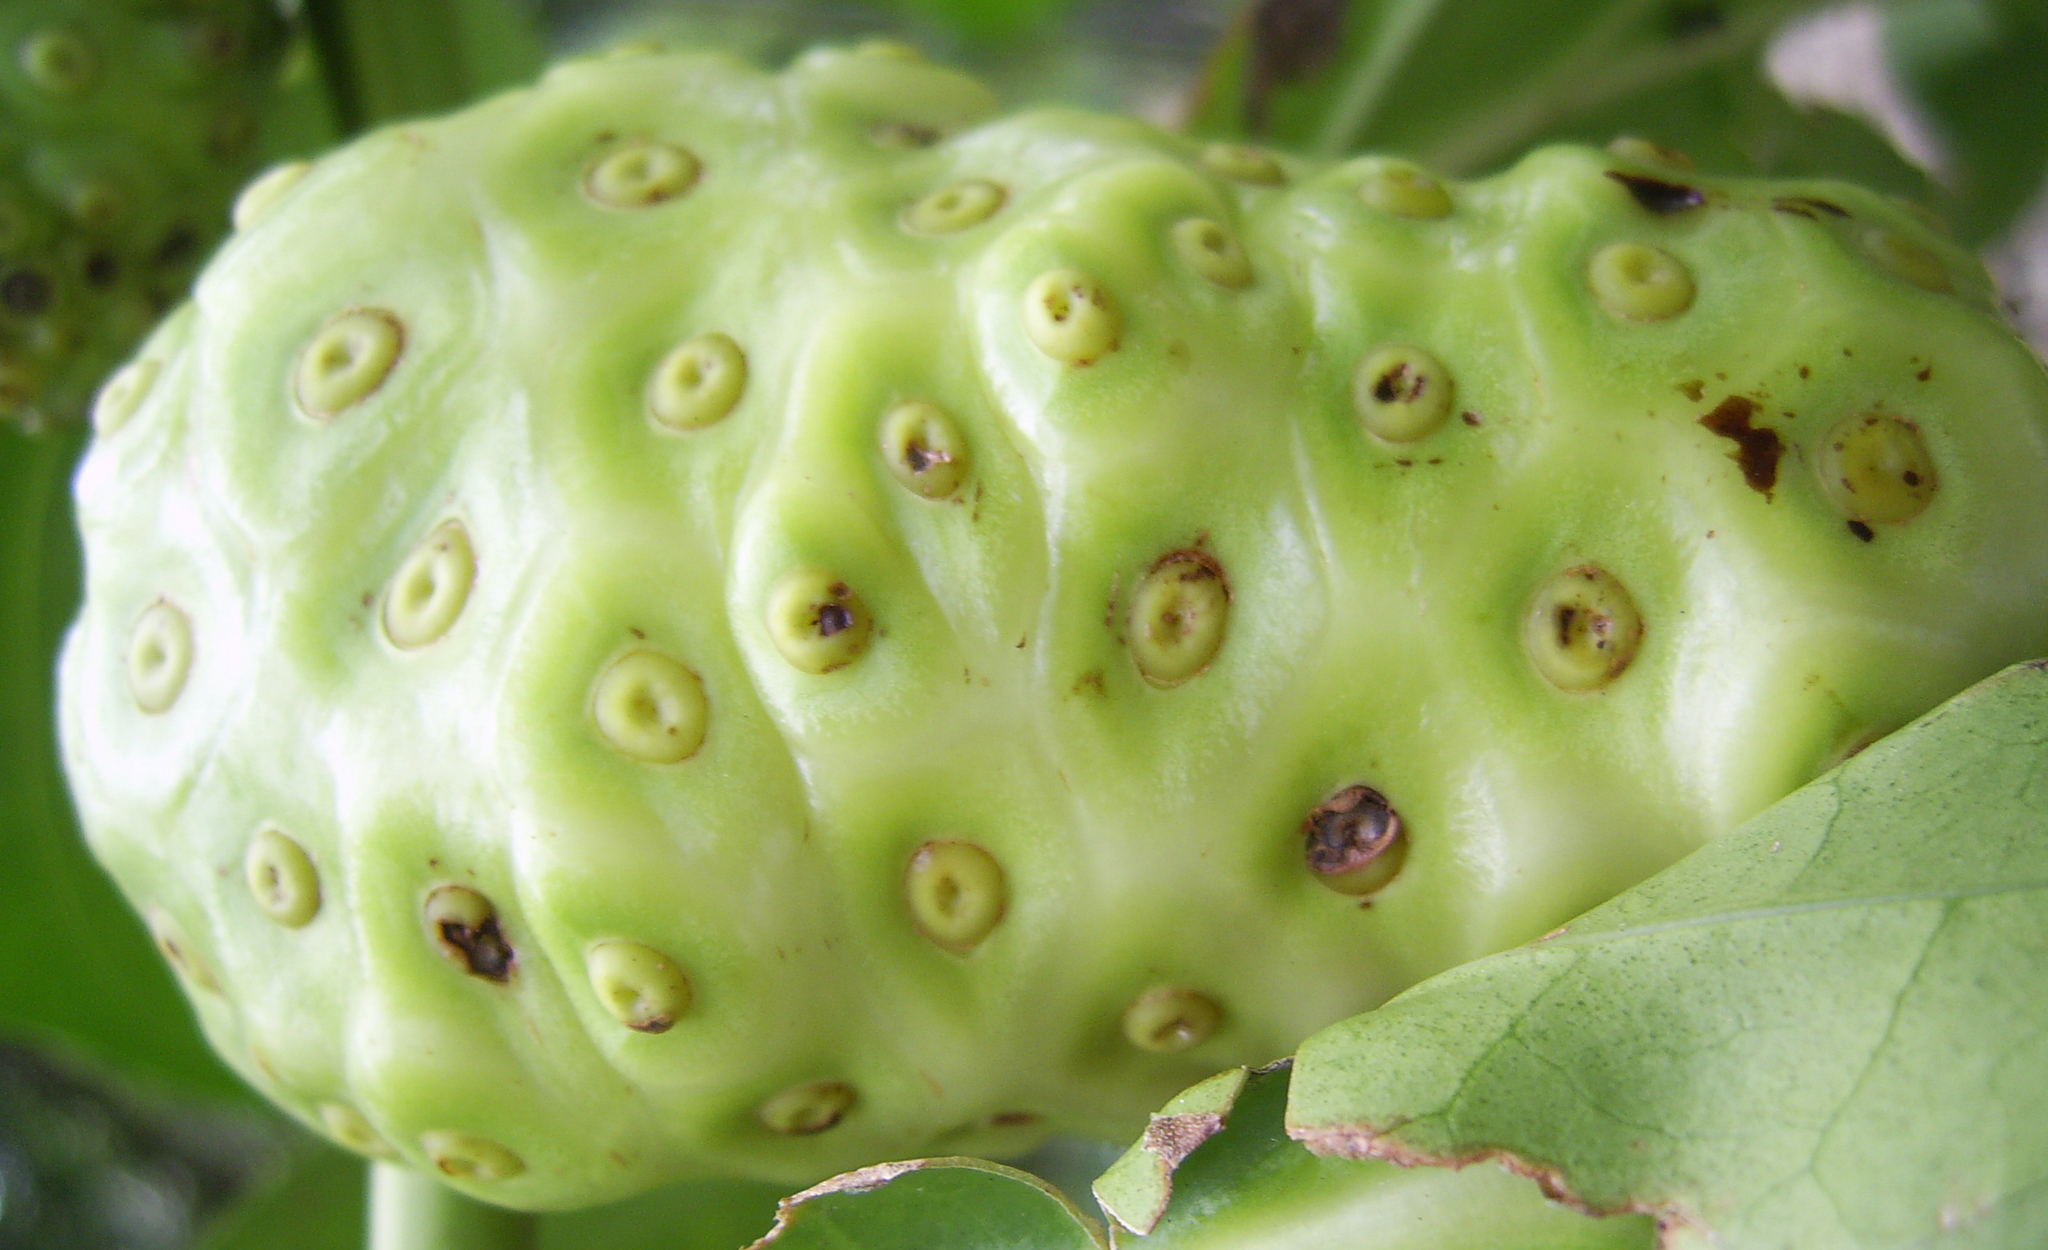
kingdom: Plantae
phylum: Tracheophyta
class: Magnoliopsida
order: Gentianales
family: Rubiaceae
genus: Morinda
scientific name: Morinda citrifolia
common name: Indian-mulberry
